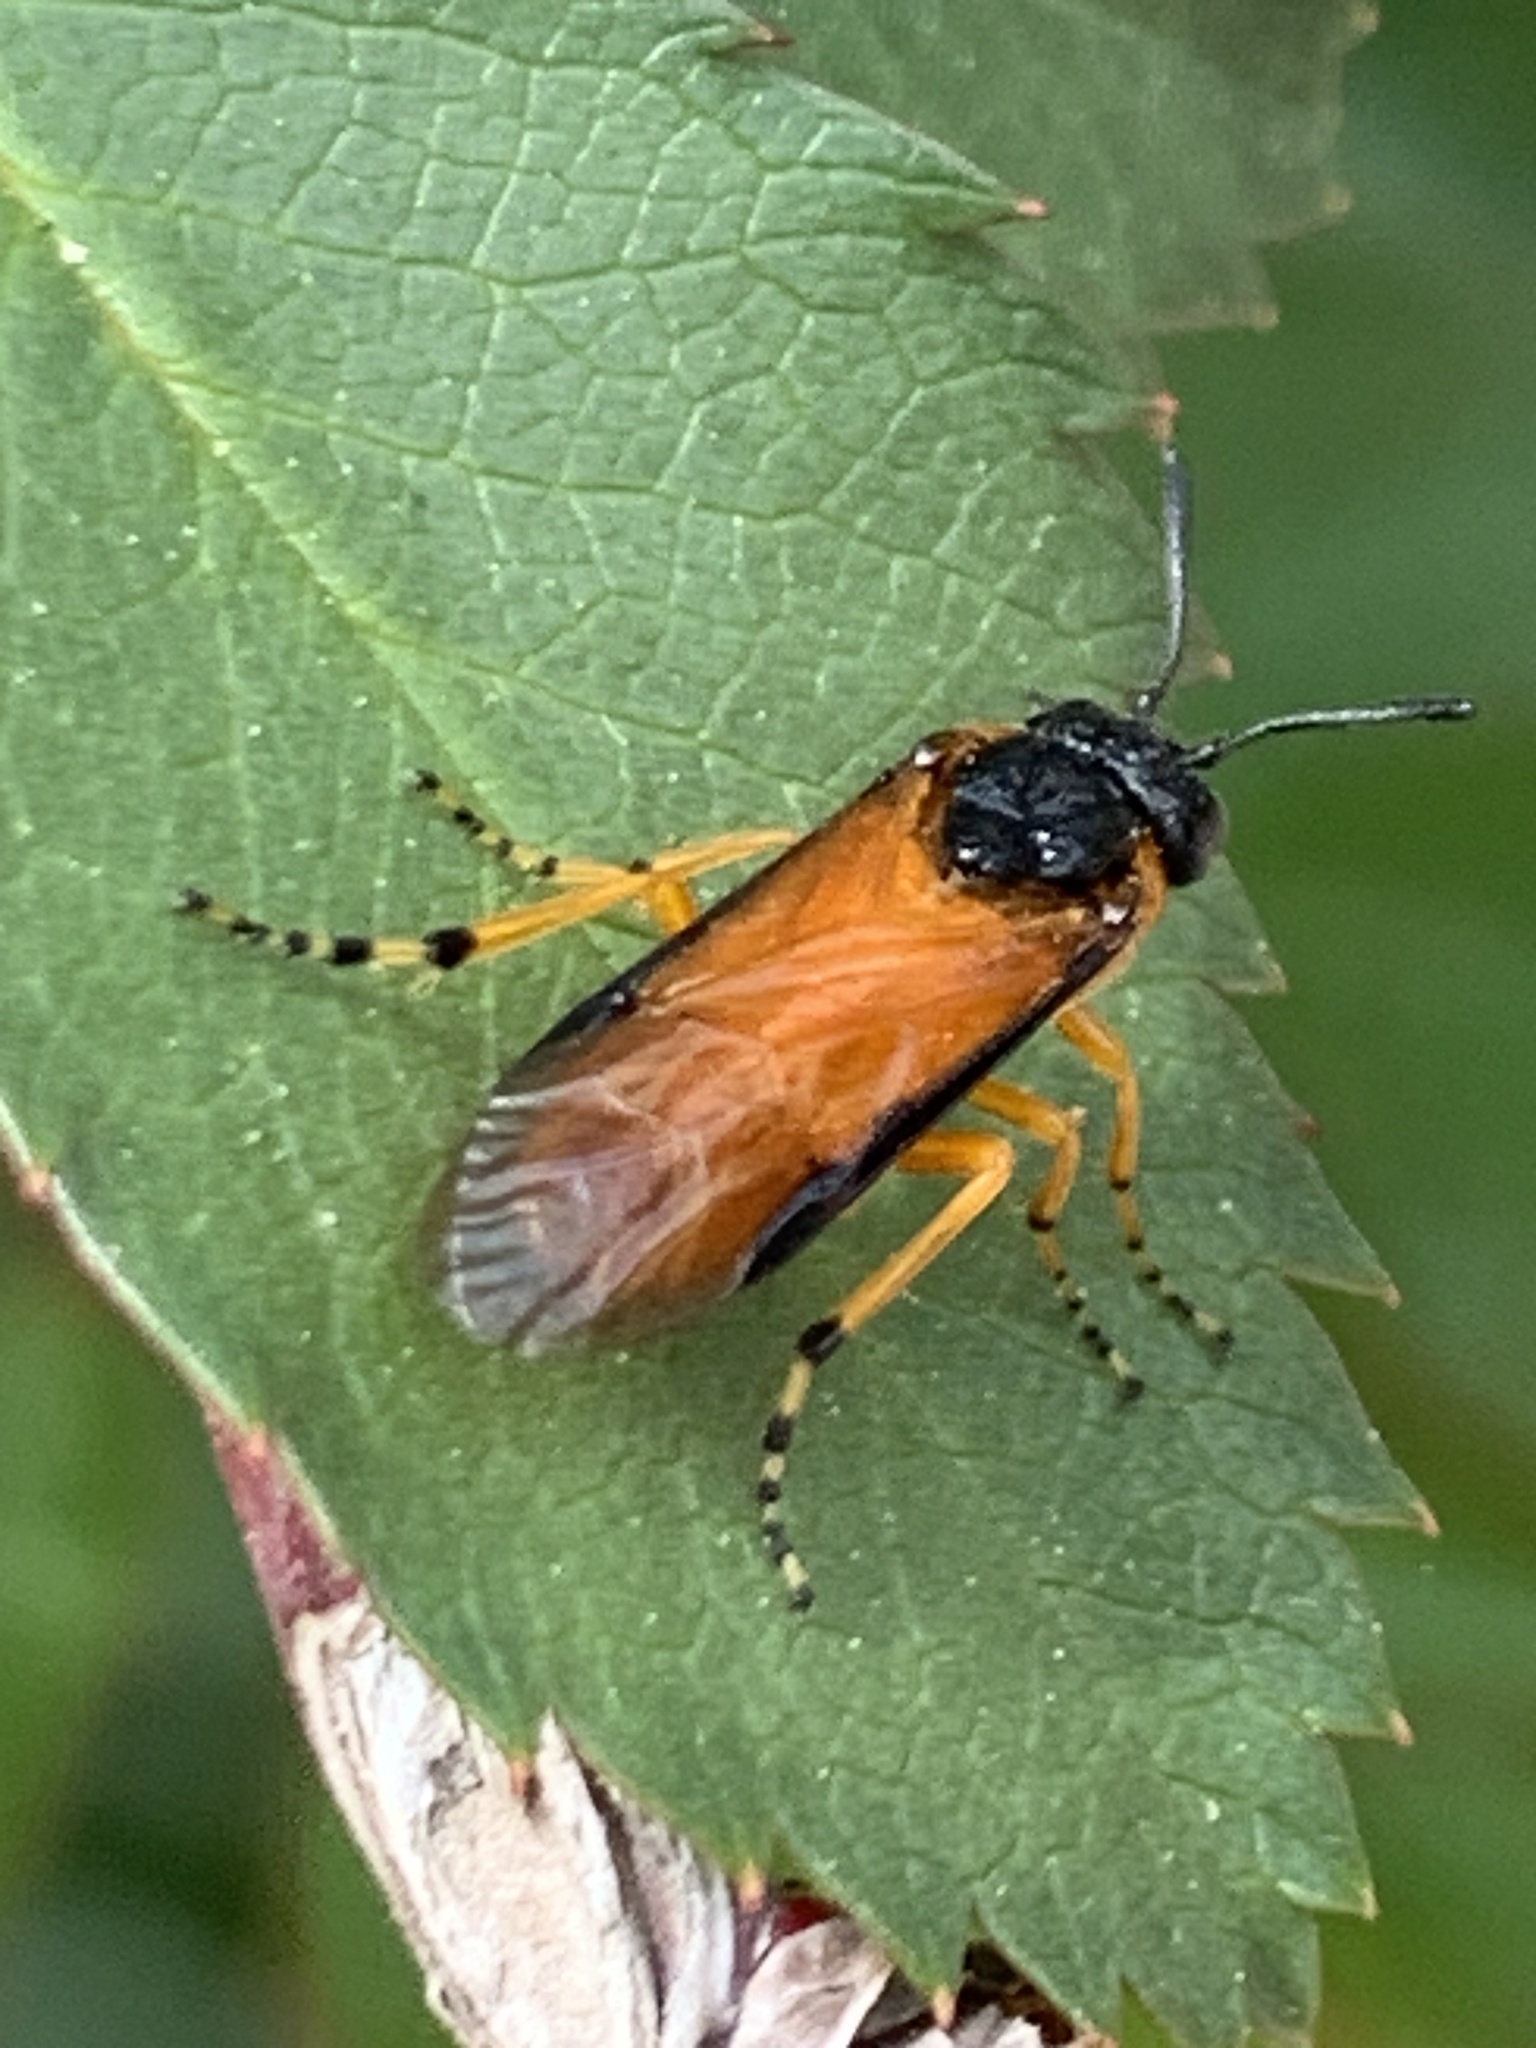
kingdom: Animalia
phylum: Arthropoda
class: Insecta
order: Hymenoptera
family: Argidae
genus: Arge
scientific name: Arge ochropus
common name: Argid sawfly
